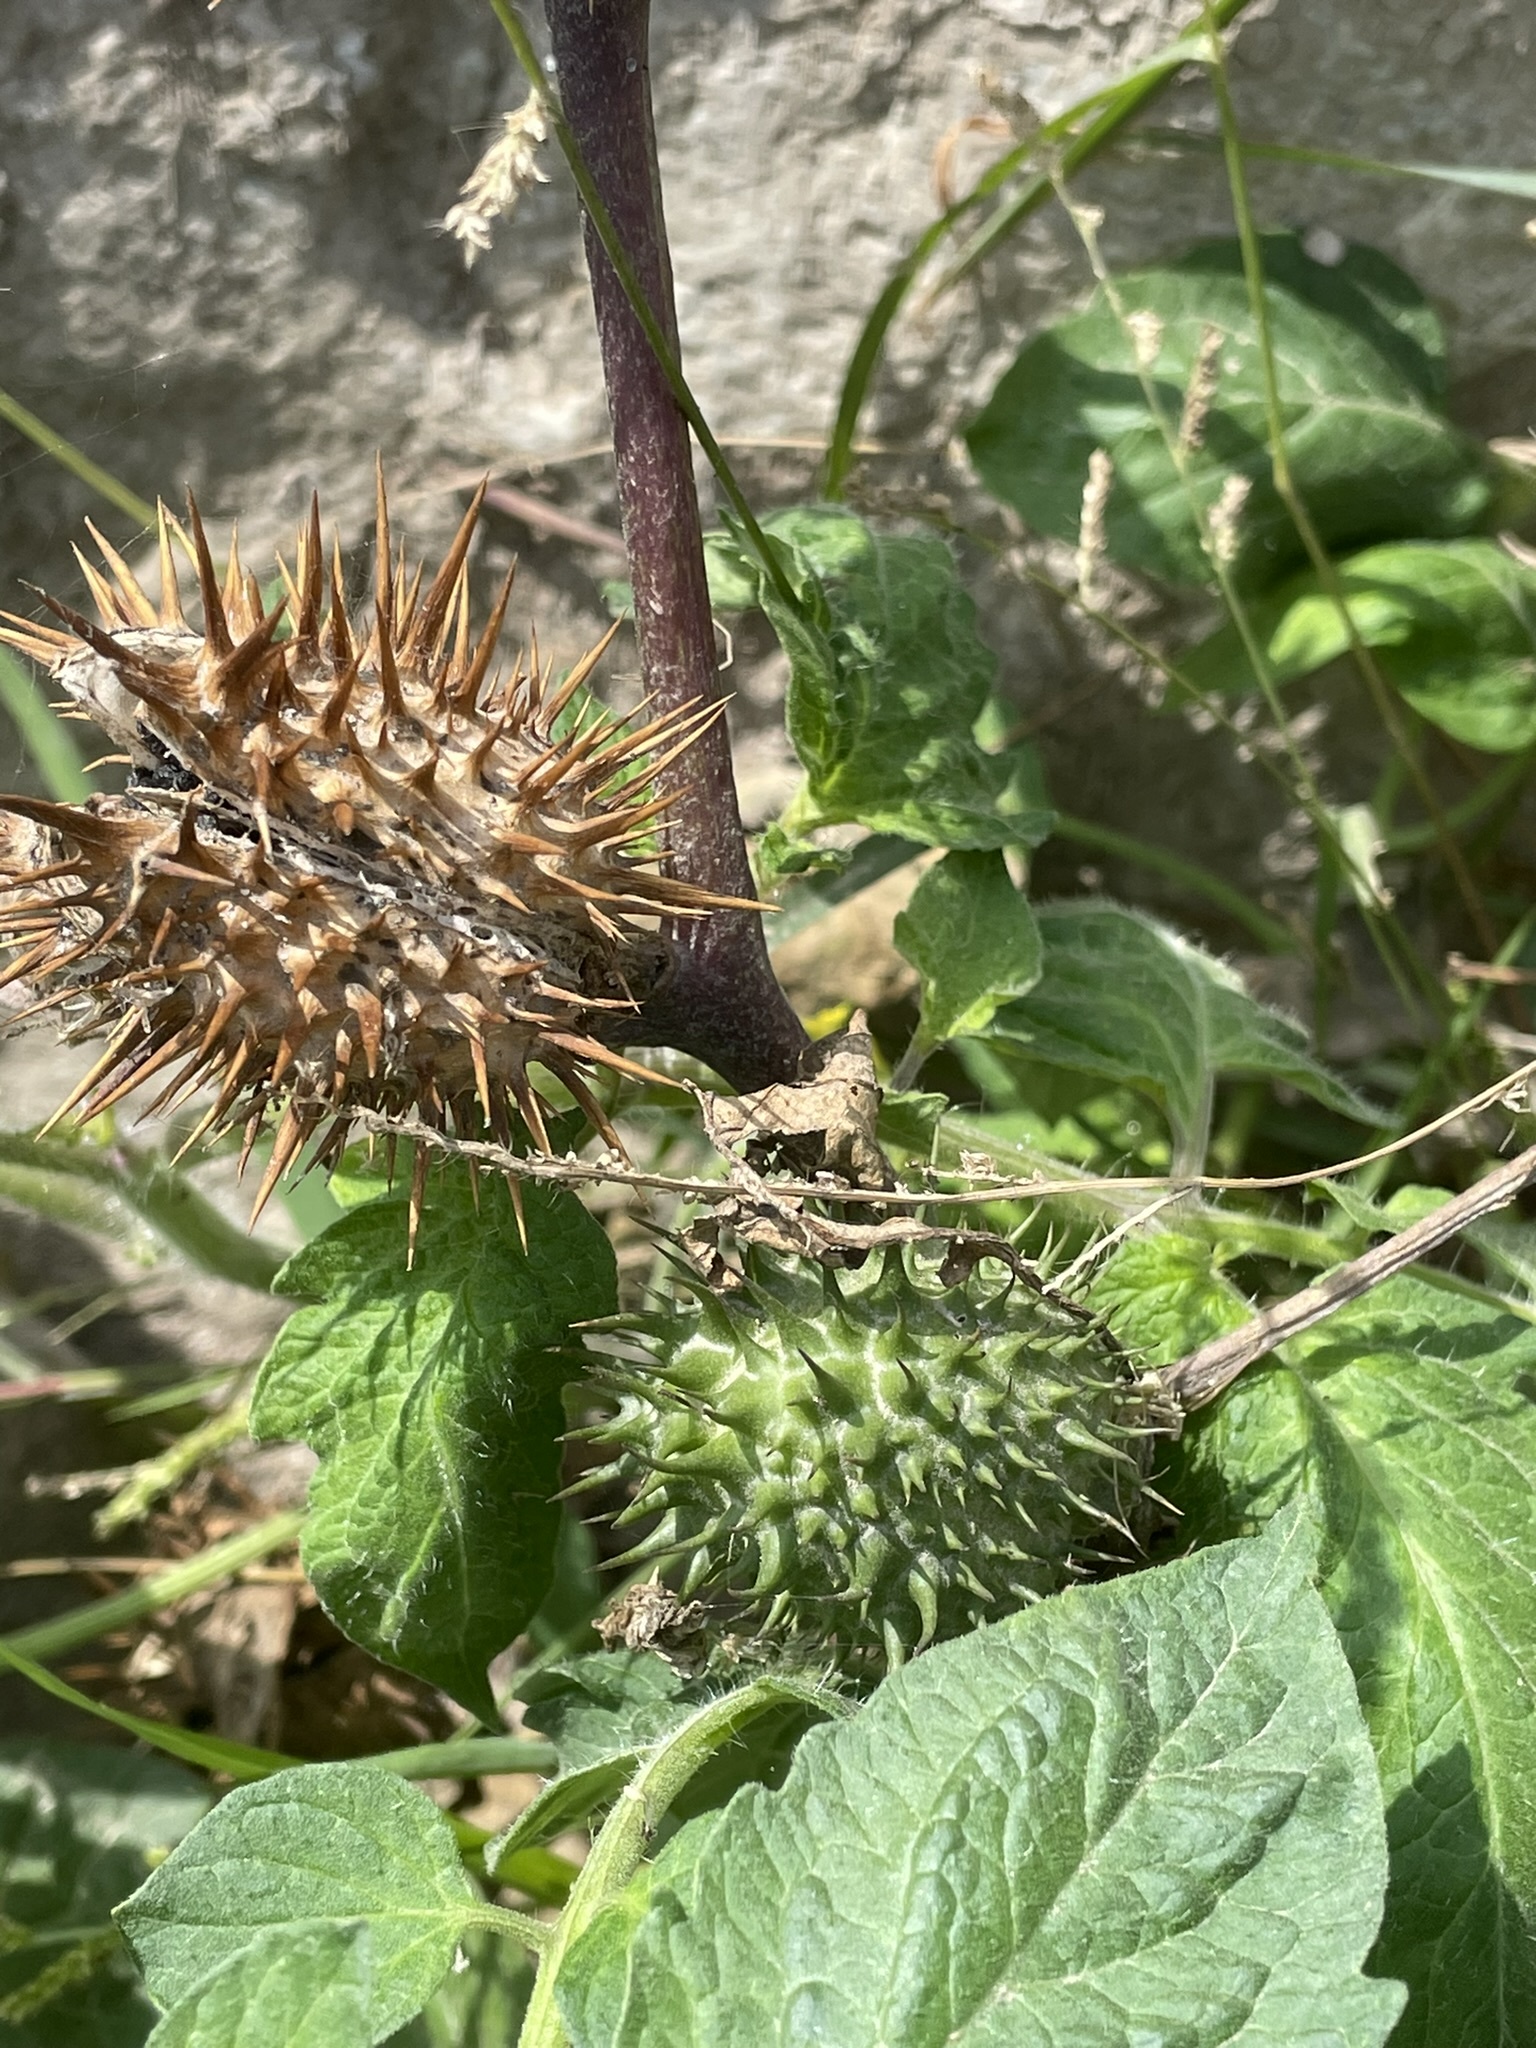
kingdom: Plantae
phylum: Tracheophyta
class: Magnoliopsida
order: Solanales
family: Solanaceae
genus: Datura
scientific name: Datura stramonium
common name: Thorn-apple
